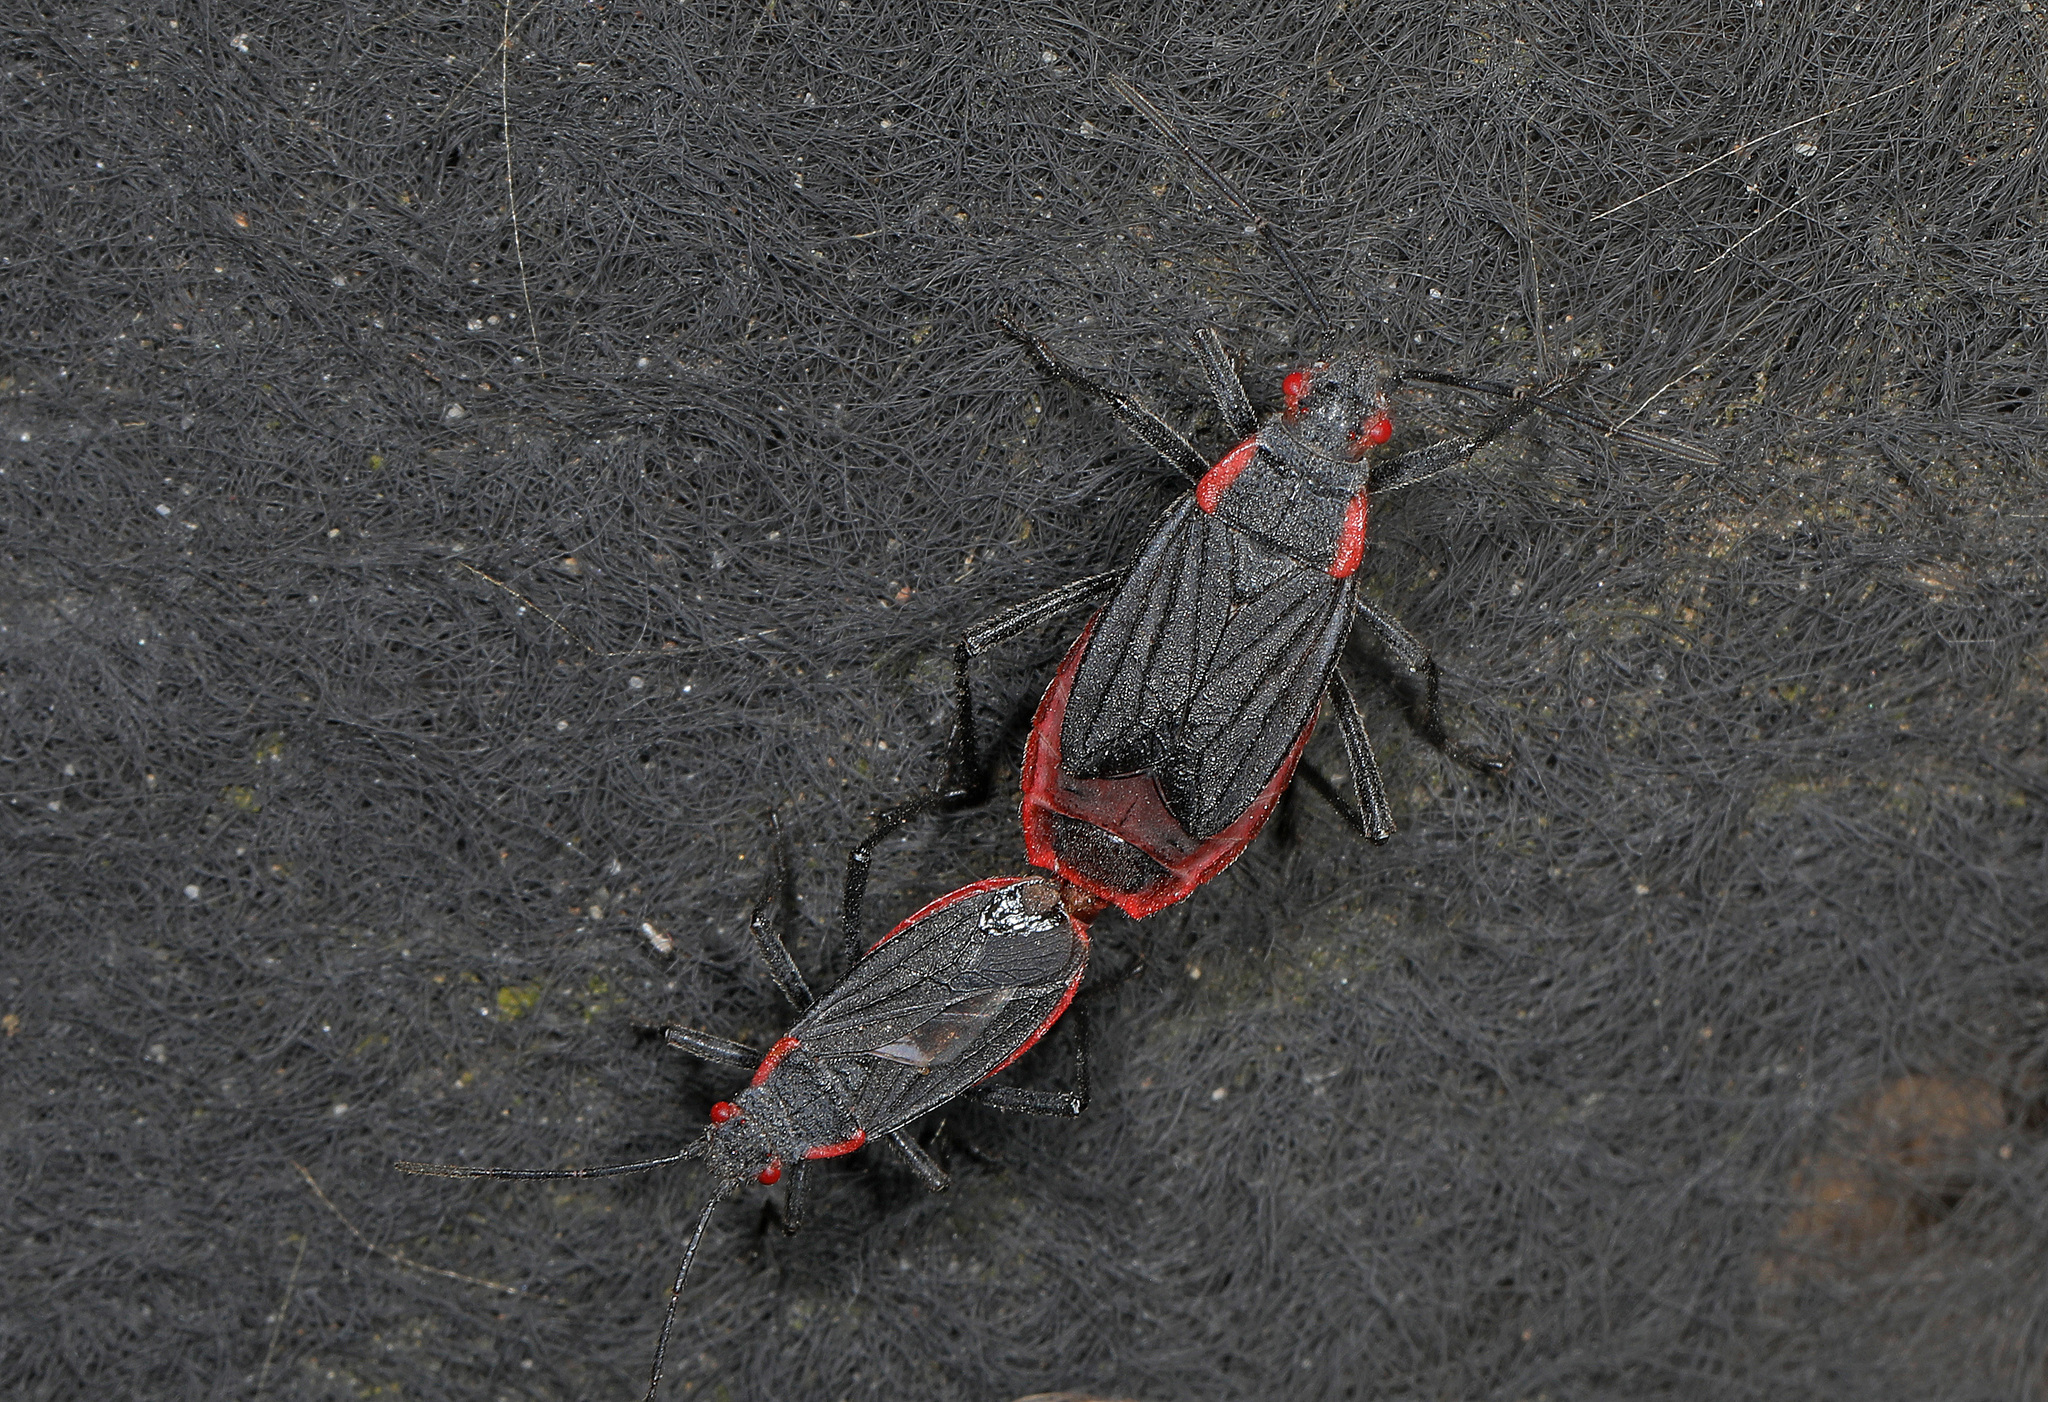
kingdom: Animalia
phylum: Arthropoda
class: Insecta
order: Hemiptera
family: Rhopalidae
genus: Jadera
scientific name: Jadera haematoloma
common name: Red-shouldered bug
